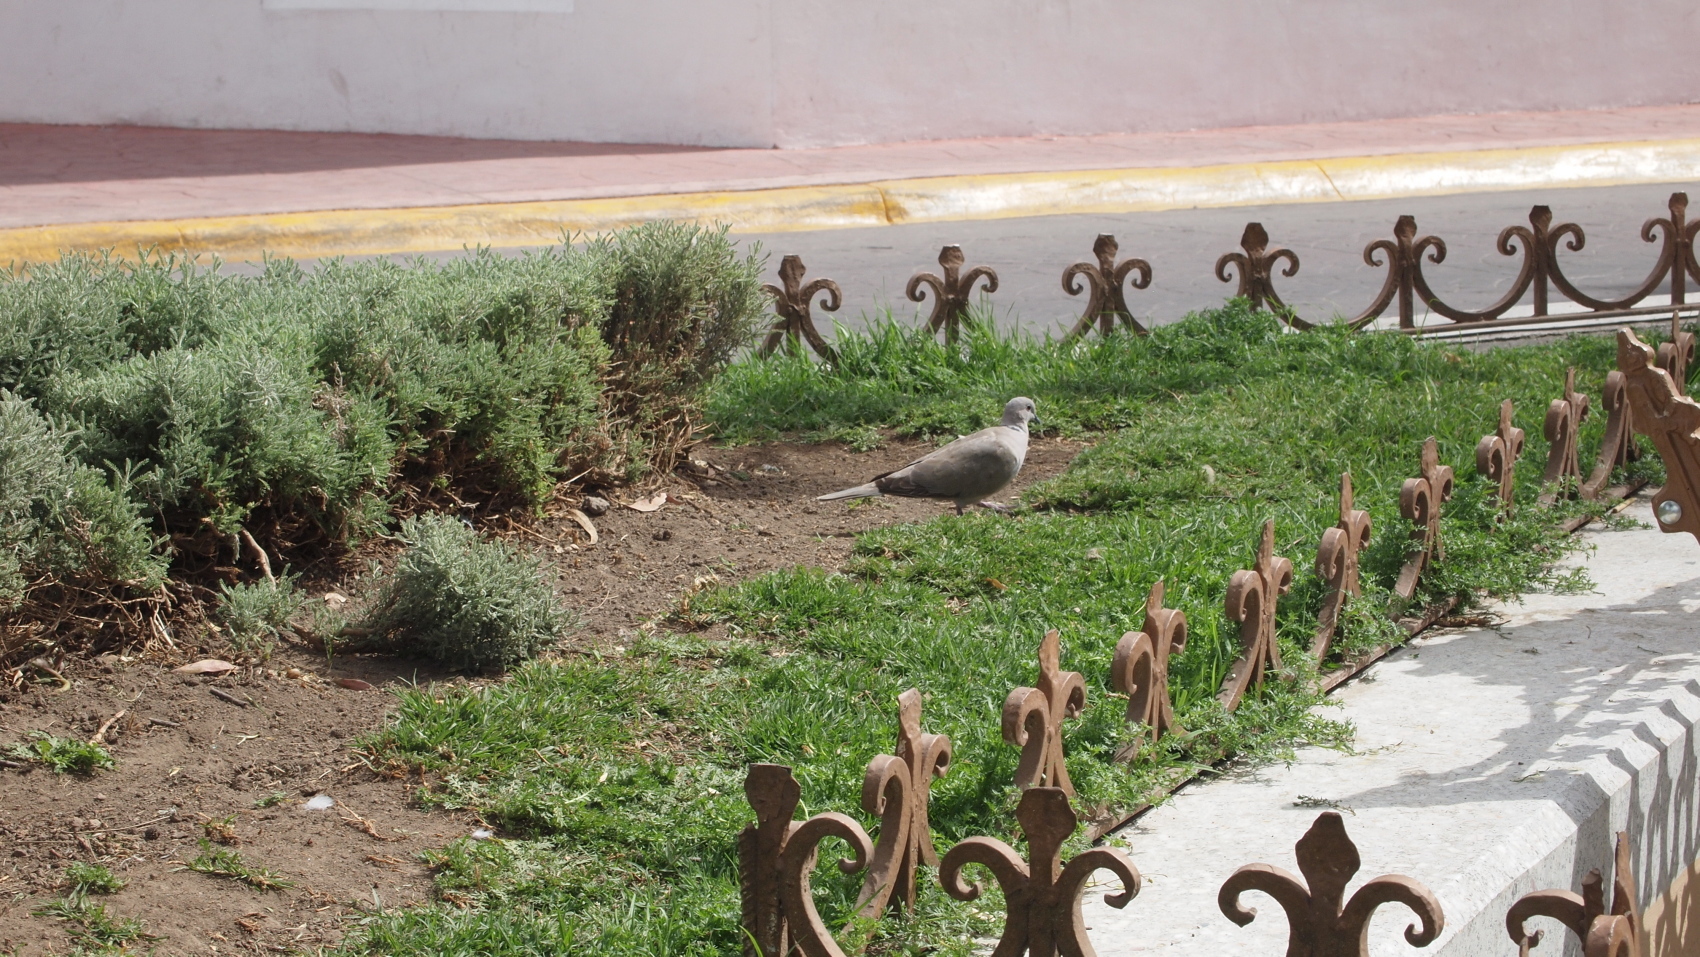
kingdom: Animalia
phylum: Chordata
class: Aves
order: Columbiformes
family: Columbidae
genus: Streptopelia
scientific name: Streptopelia decaocto
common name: Eurasian collared dove
